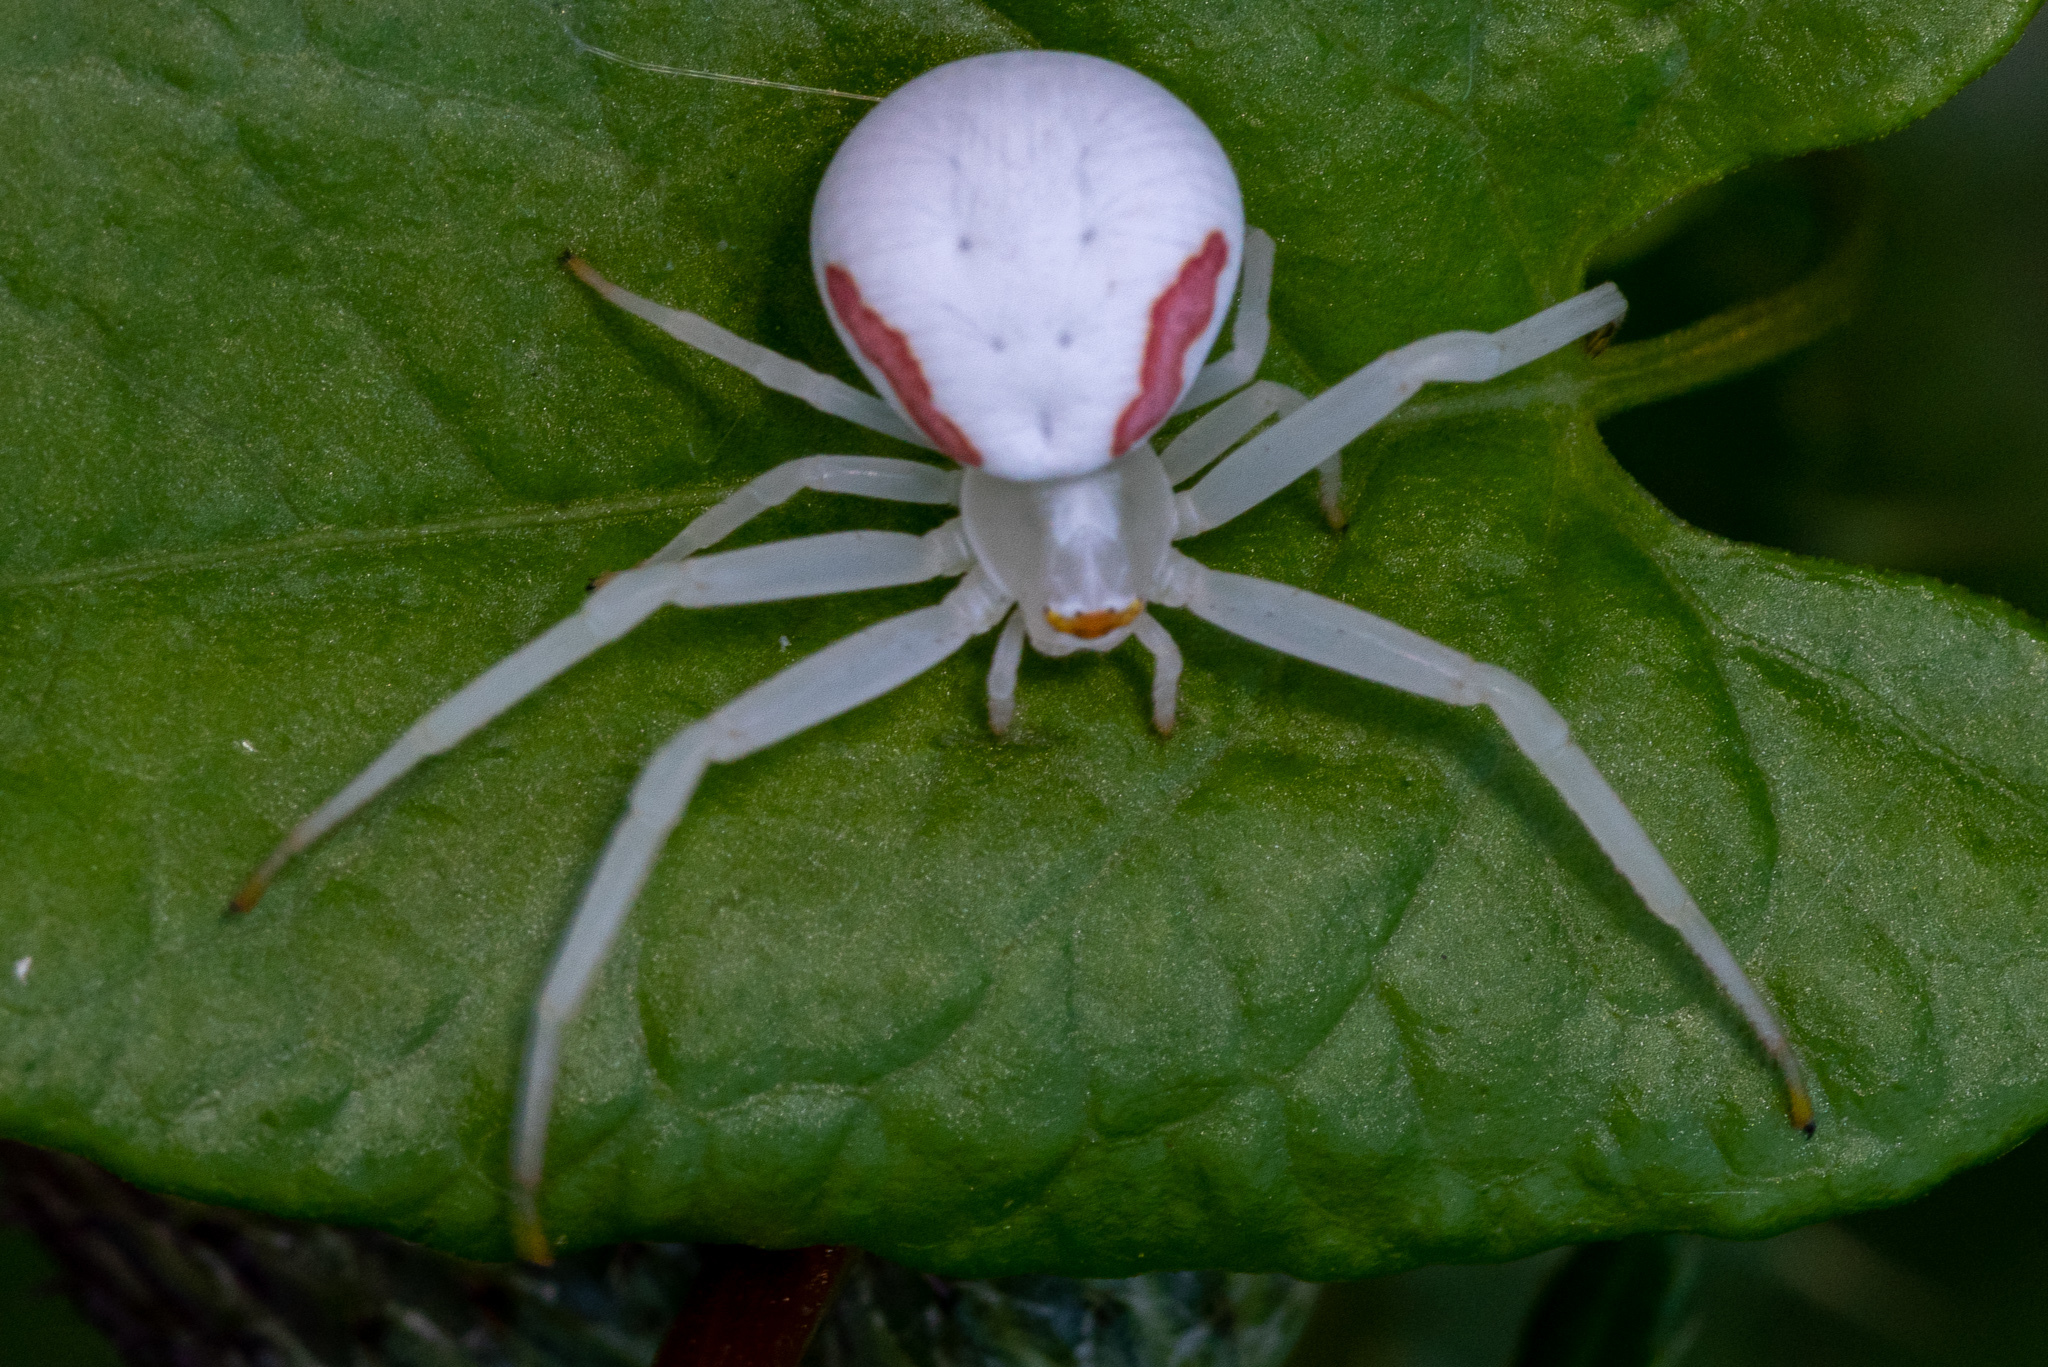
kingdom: Animalia
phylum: Arthropoda
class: Arachnida
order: Araneae
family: Thomisidae
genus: Misumena
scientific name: Misumena vatia
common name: Goldenrod crab spider
